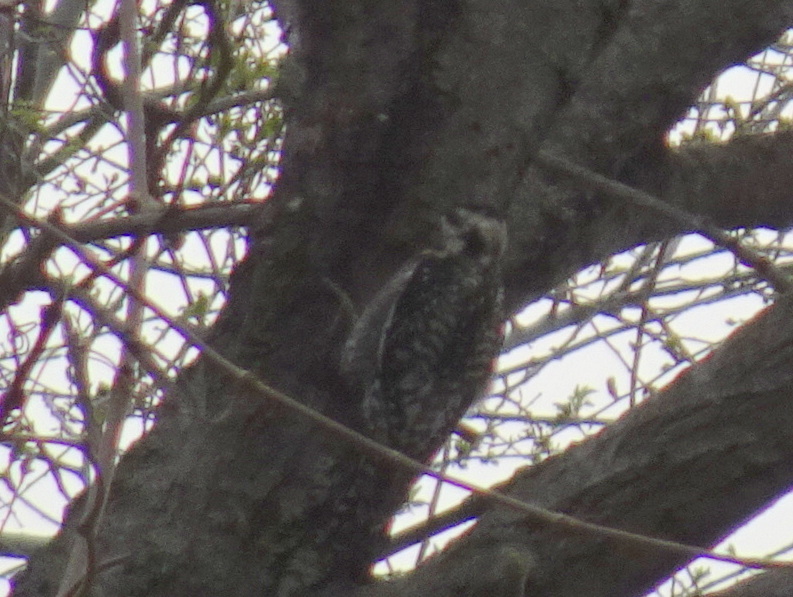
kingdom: Animalia
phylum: Chordata
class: Aves
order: Piciformes
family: Picidae
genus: Sphyrapicus
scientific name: Sphyrapicus varius
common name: Yellow-bellied sapsucker
